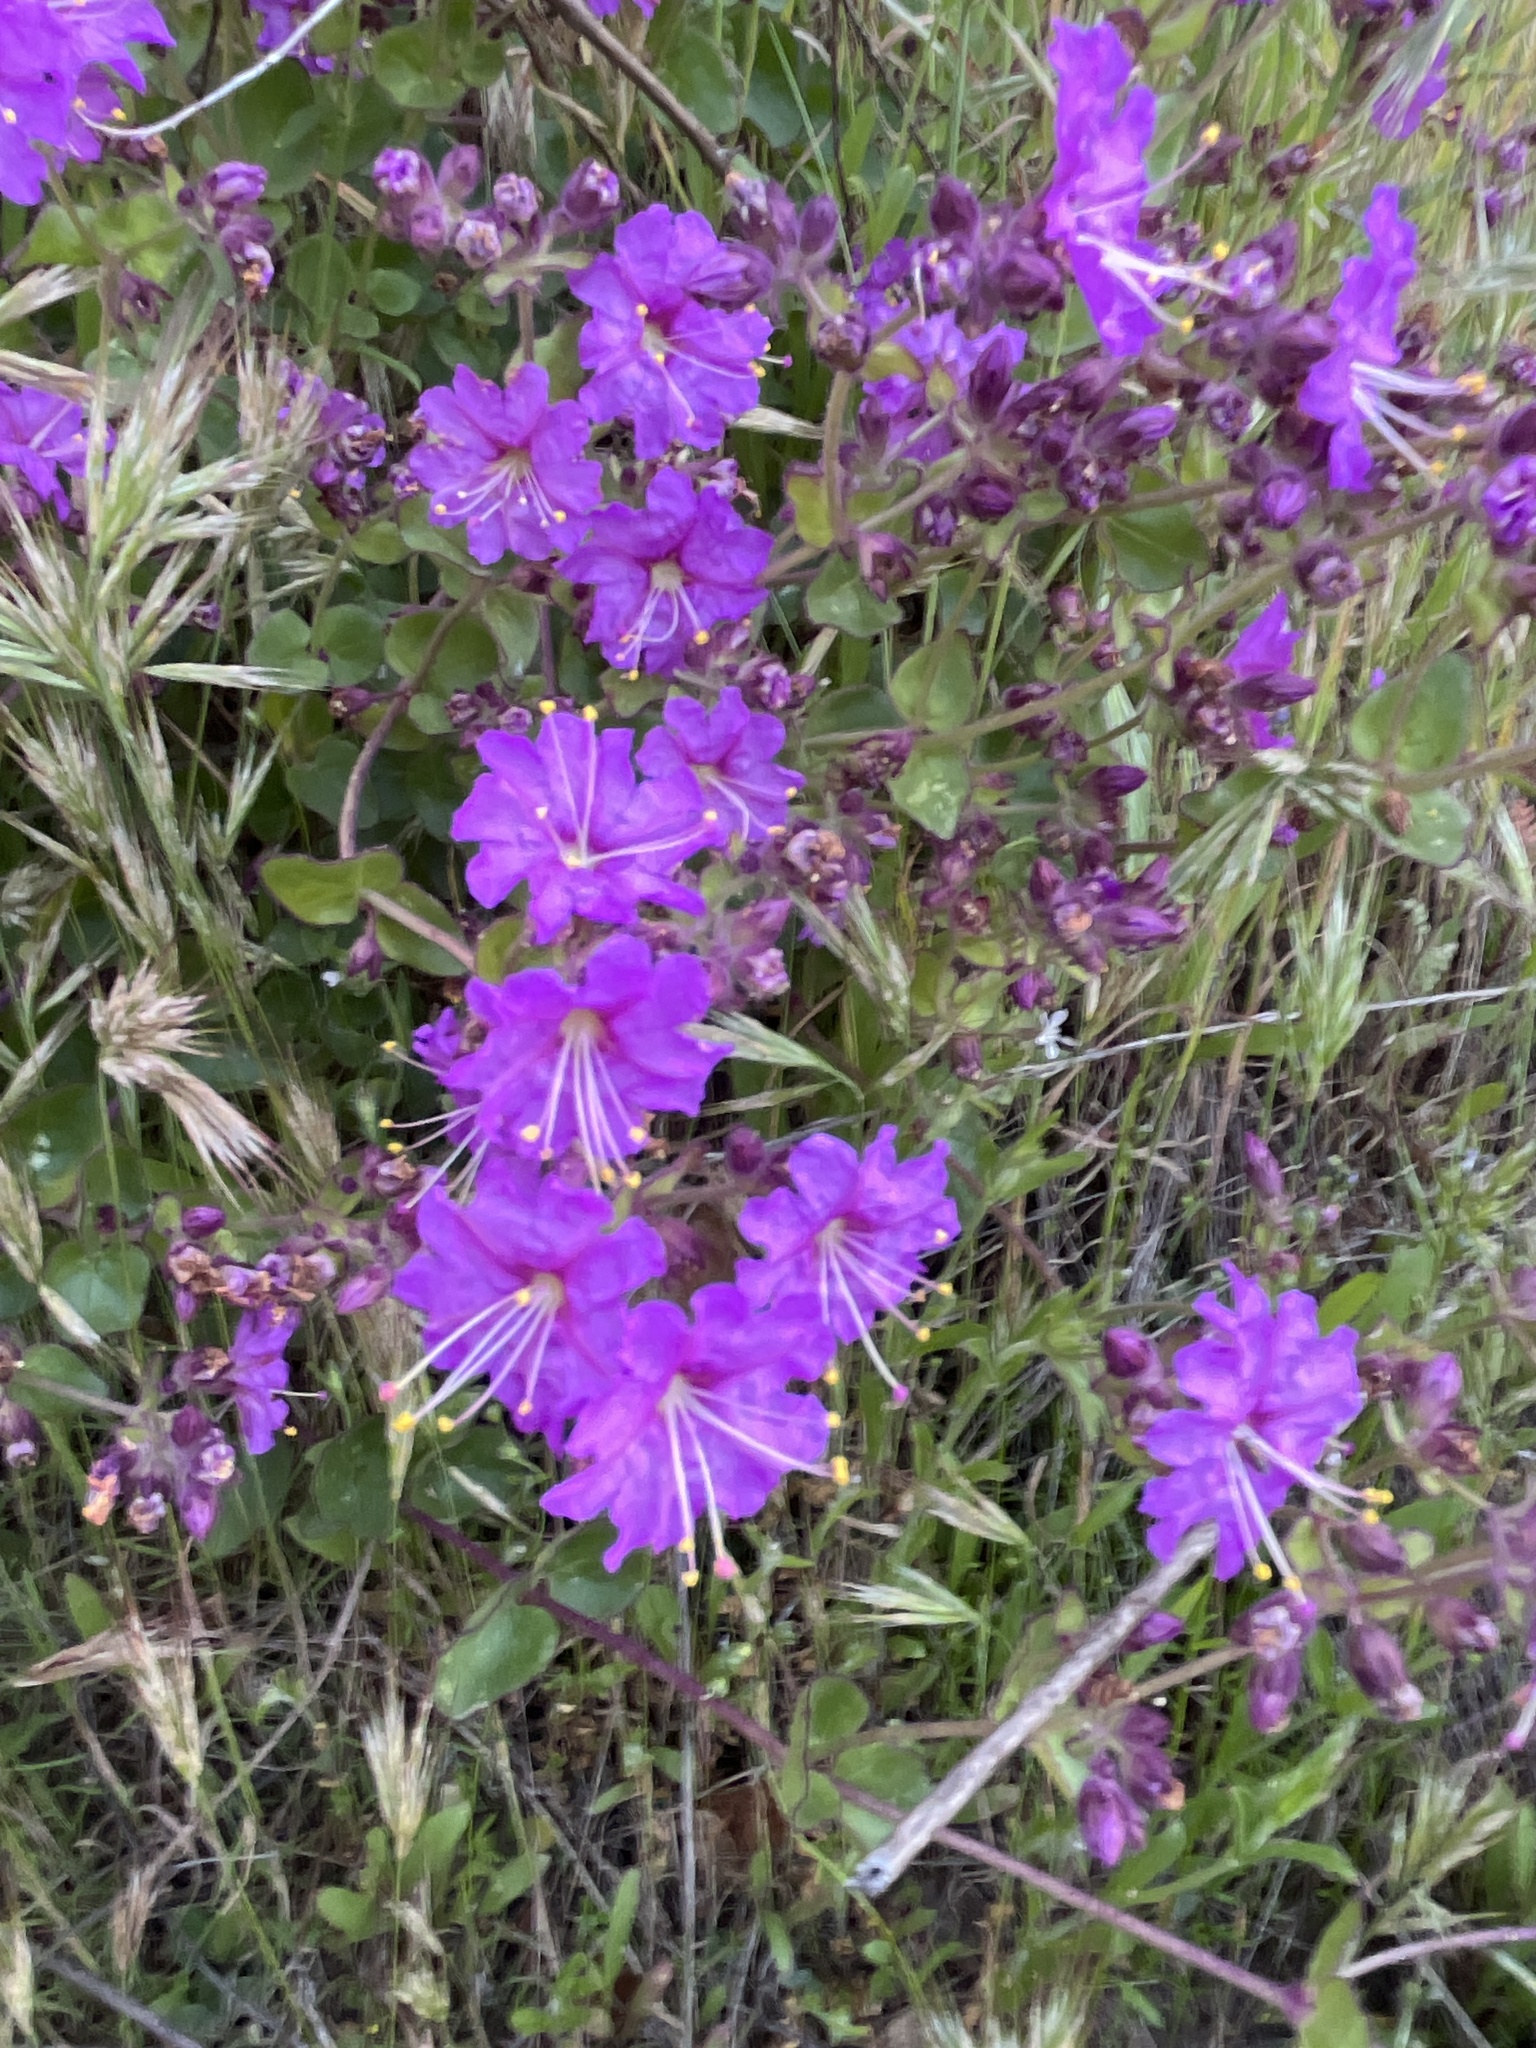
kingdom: Plantae
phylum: Tracheophyta
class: Magnoliopsida
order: Caryophyllales
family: Nyctaginaceae
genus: Mirabilis
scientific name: Mirabilis laevis
